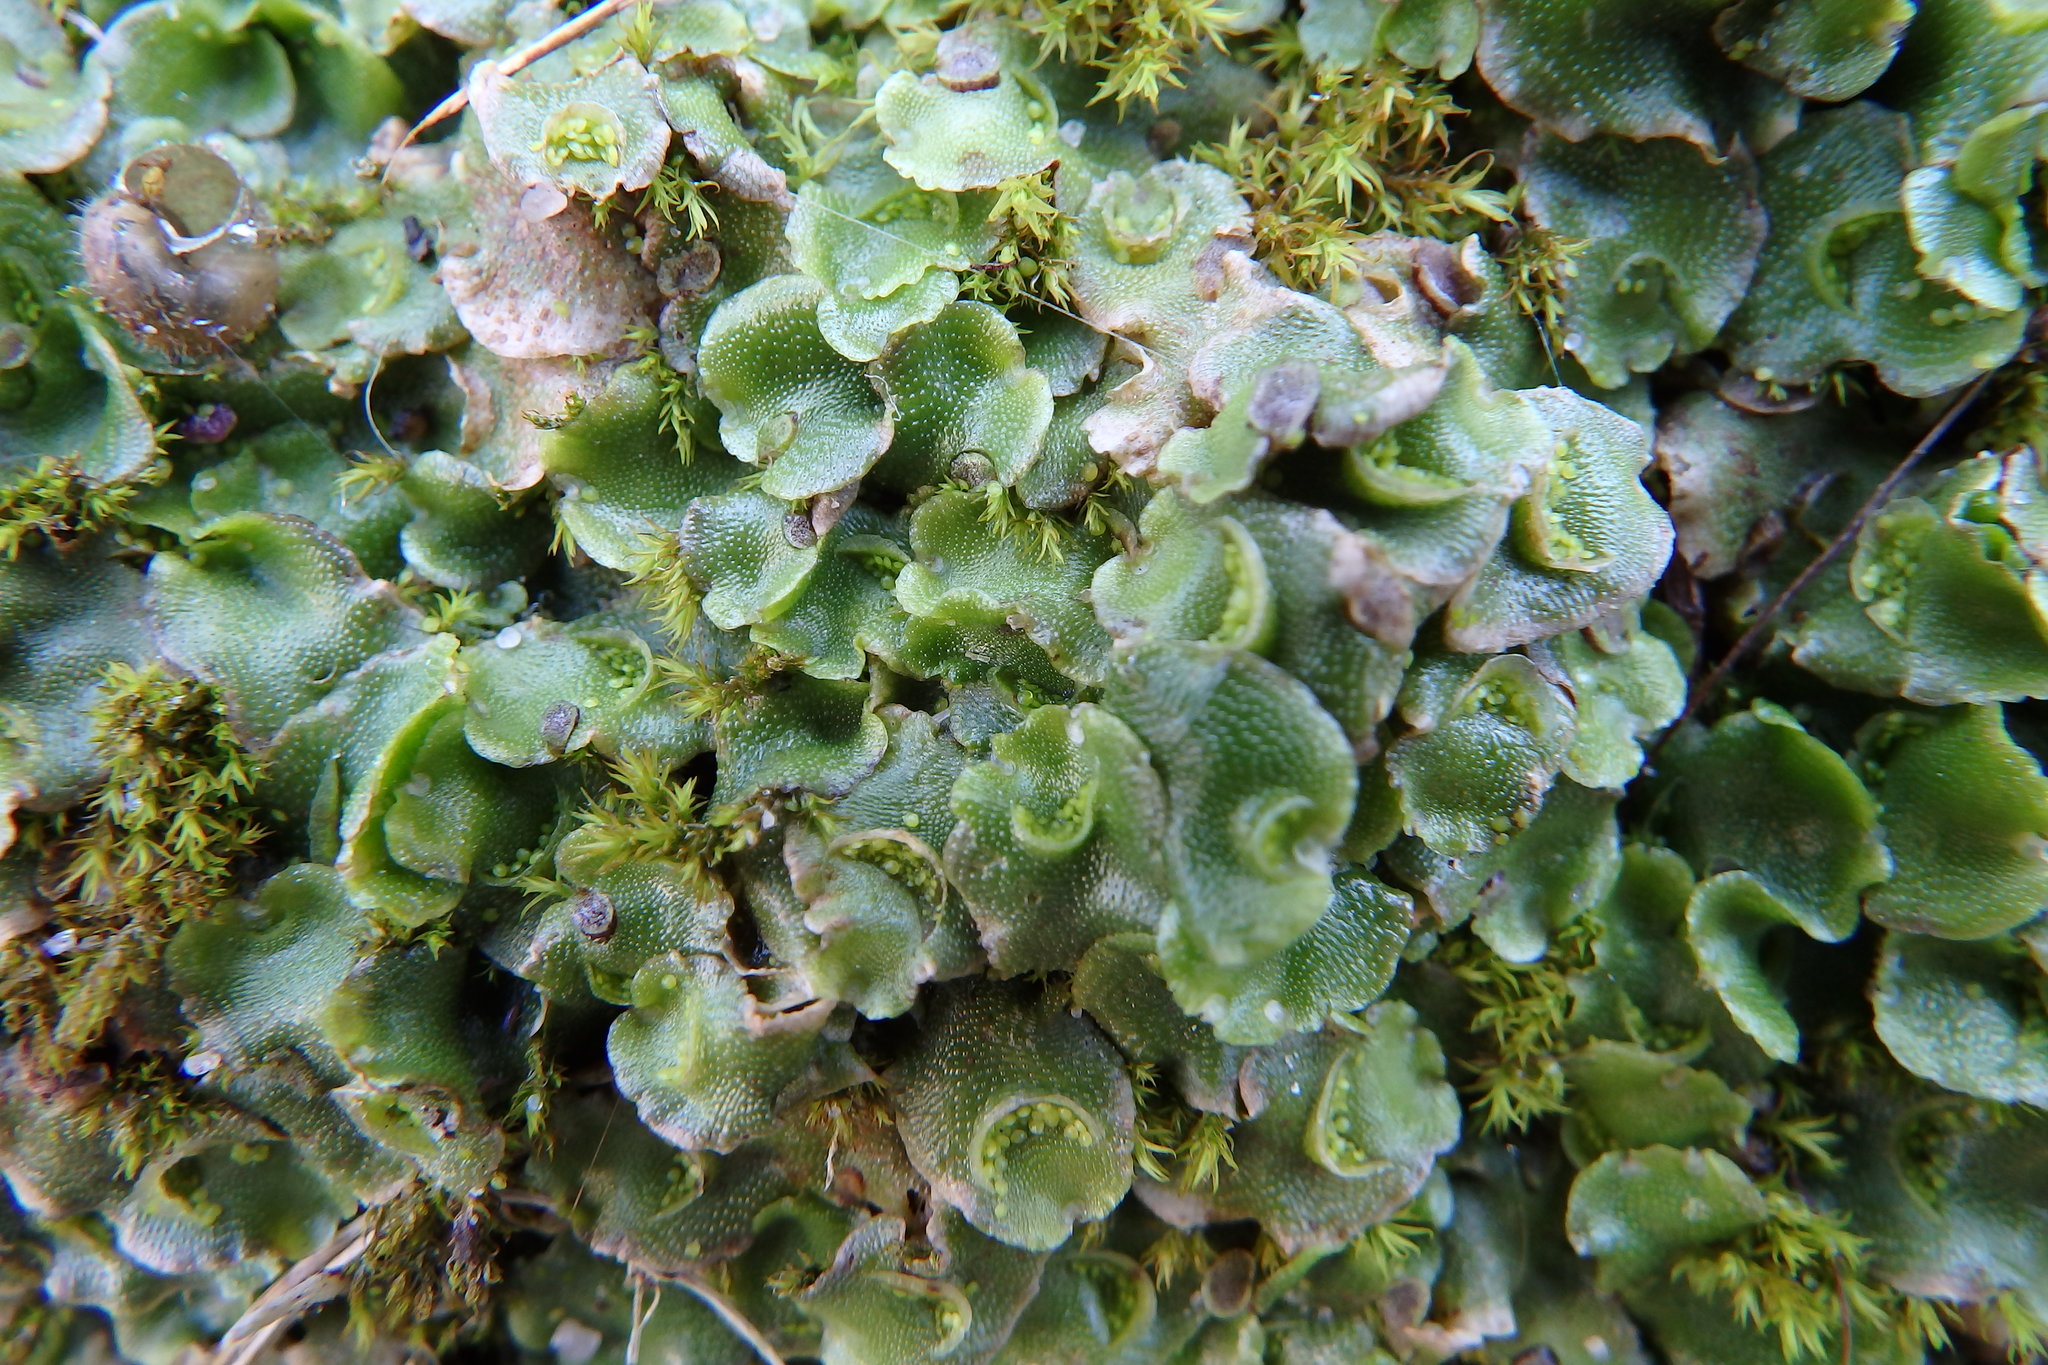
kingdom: Plantae
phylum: Marchantiophyta
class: Marchantiopsida
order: Lunulariales
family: Lunulariaceae
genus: Lunularia
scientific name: Lunularia cruciata
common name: Crescent-cup liverwort
